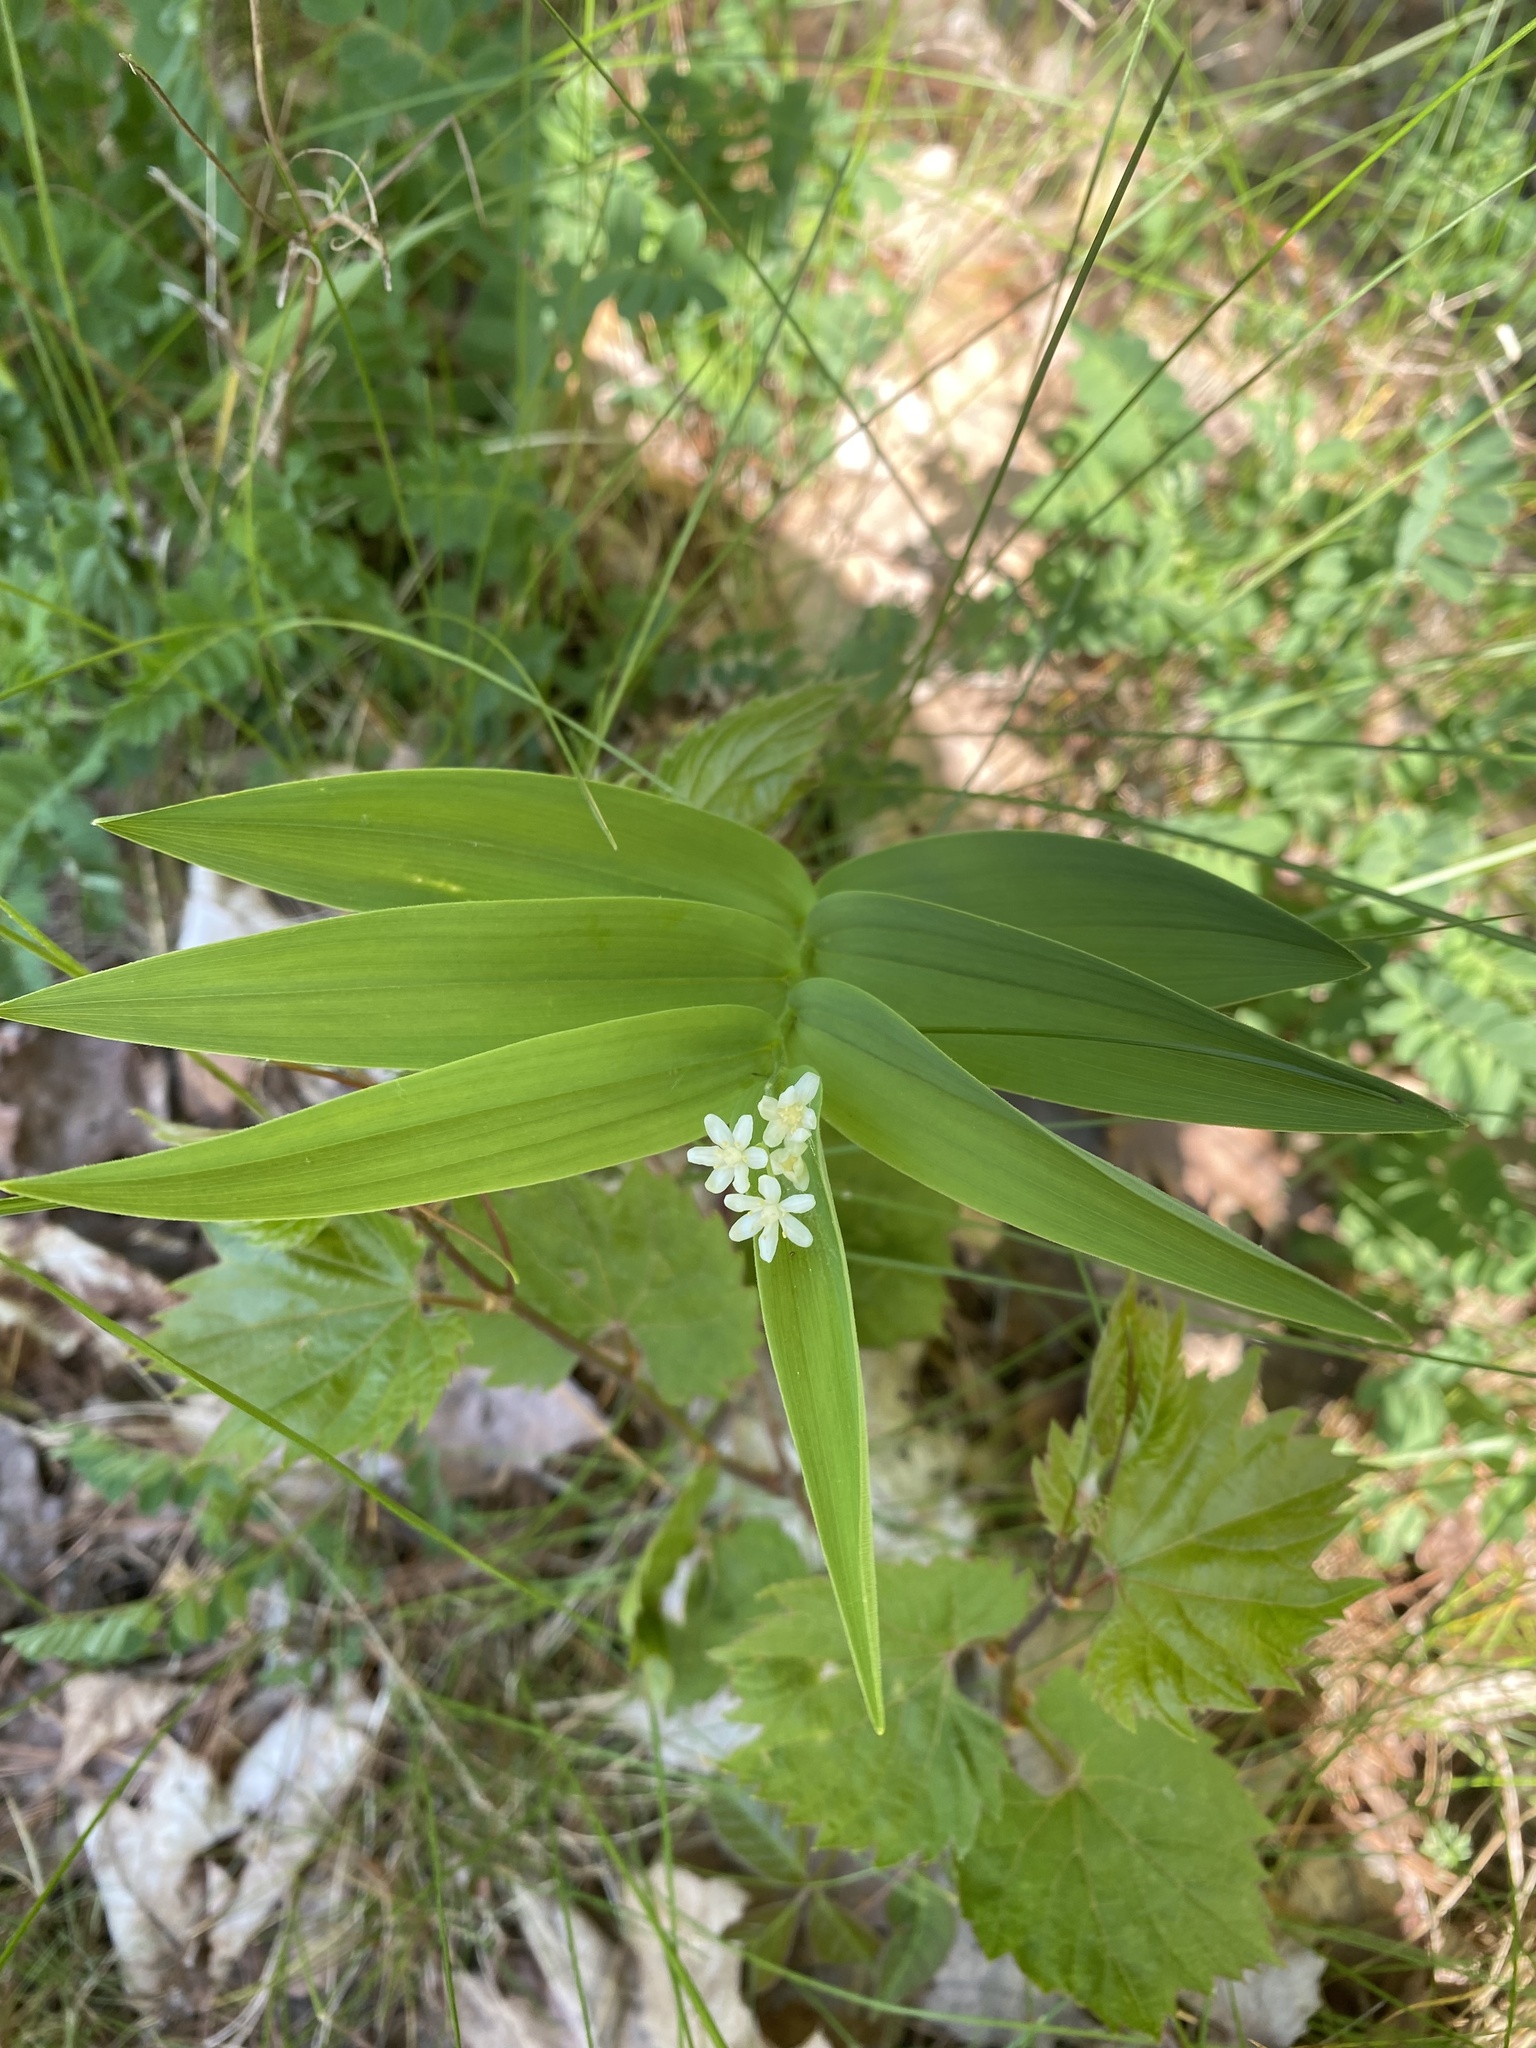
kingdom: Plantae
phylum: Tracheophyta
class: Liliopsida
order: Asparagales
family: Asparagaceae
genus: Maianthemum
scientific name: Maianthemum stellatum
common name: Little false solomon's seal
